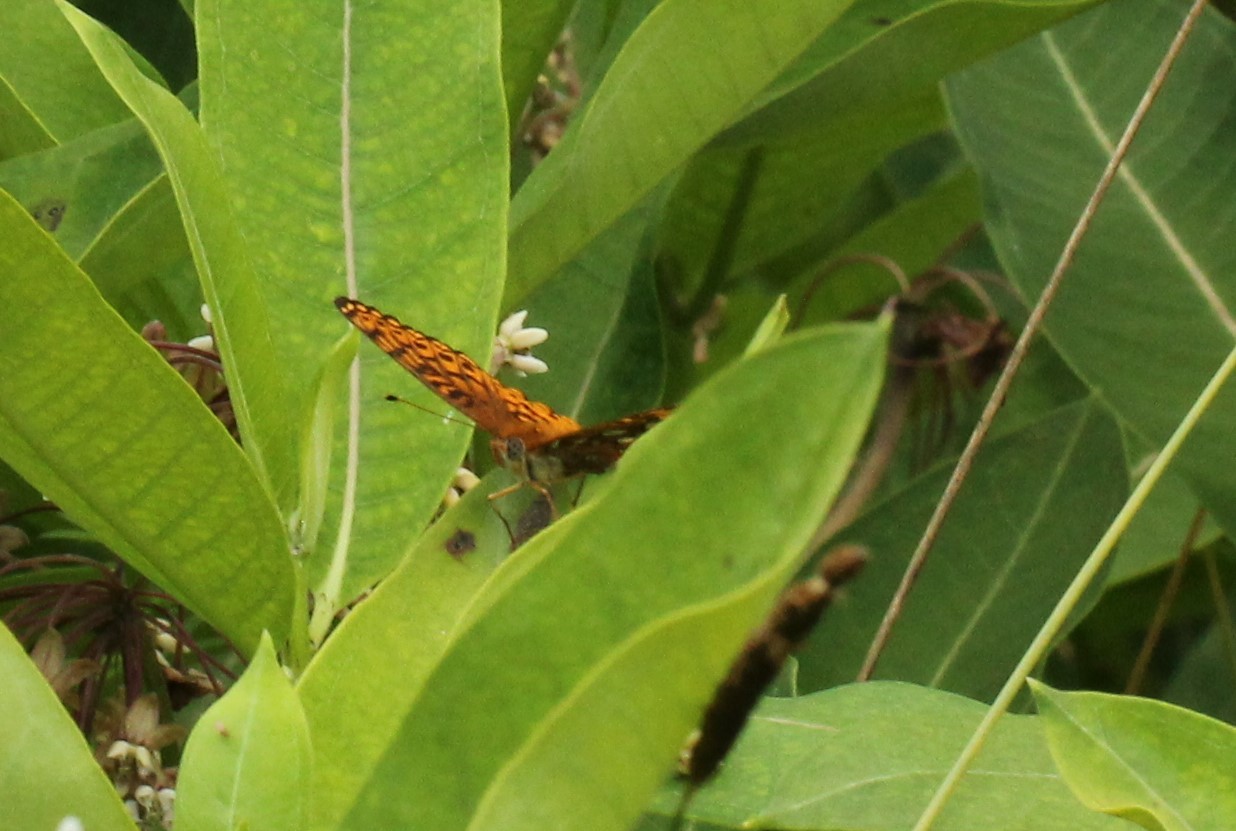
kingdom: Animalia
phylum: Arthropoda
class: Insecta
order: Lepidoptera
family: Nymphalidae
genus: Speyeria
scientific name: Speyeria atlantis
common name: Atlantis fritillary
